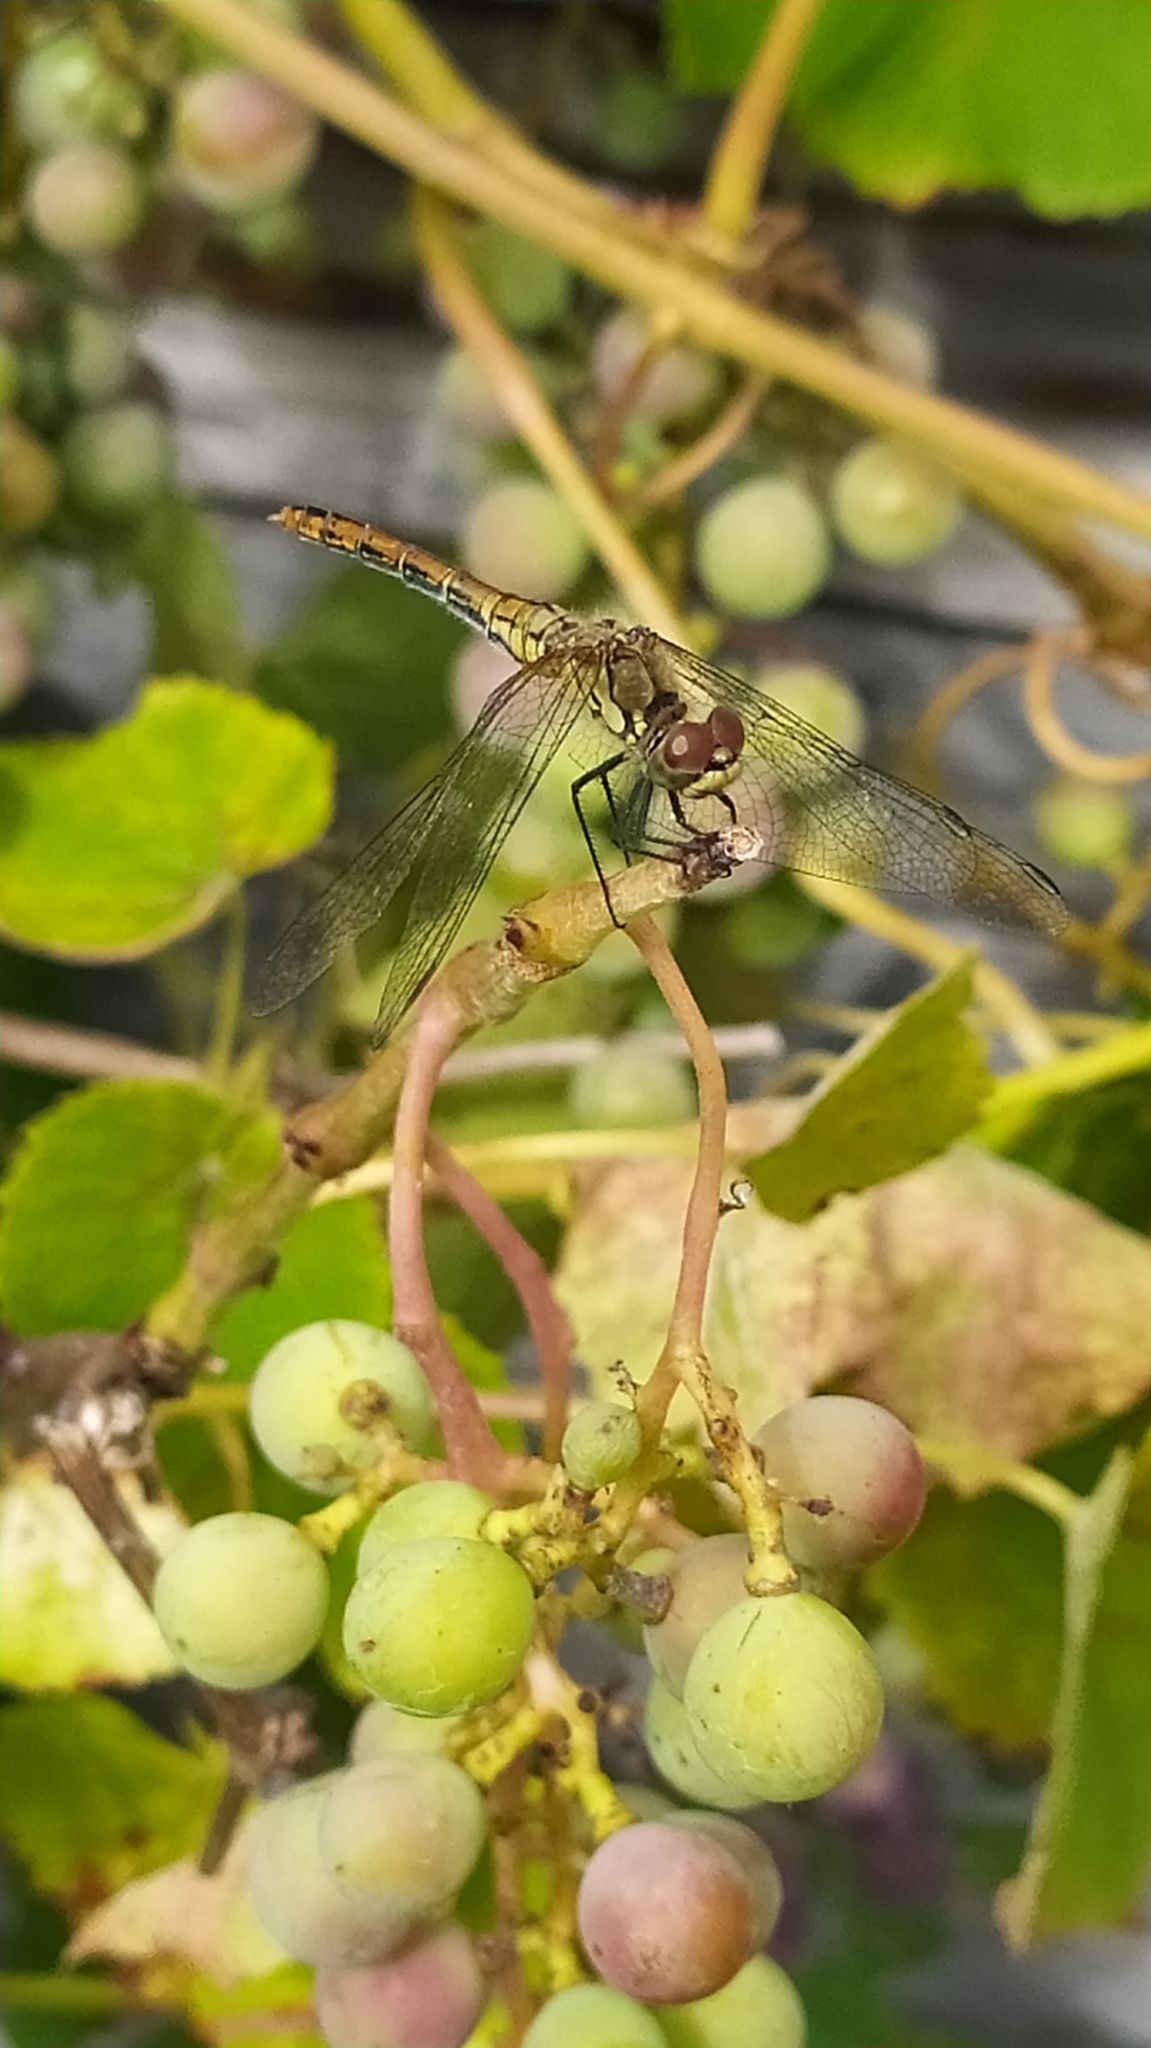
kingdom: Animalia
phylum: Arthropoda
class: Insecta
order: Odonata
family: Libellulidae
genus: Sympetrum
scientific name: Sympetrum sanguineum
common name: Ruddy darter
